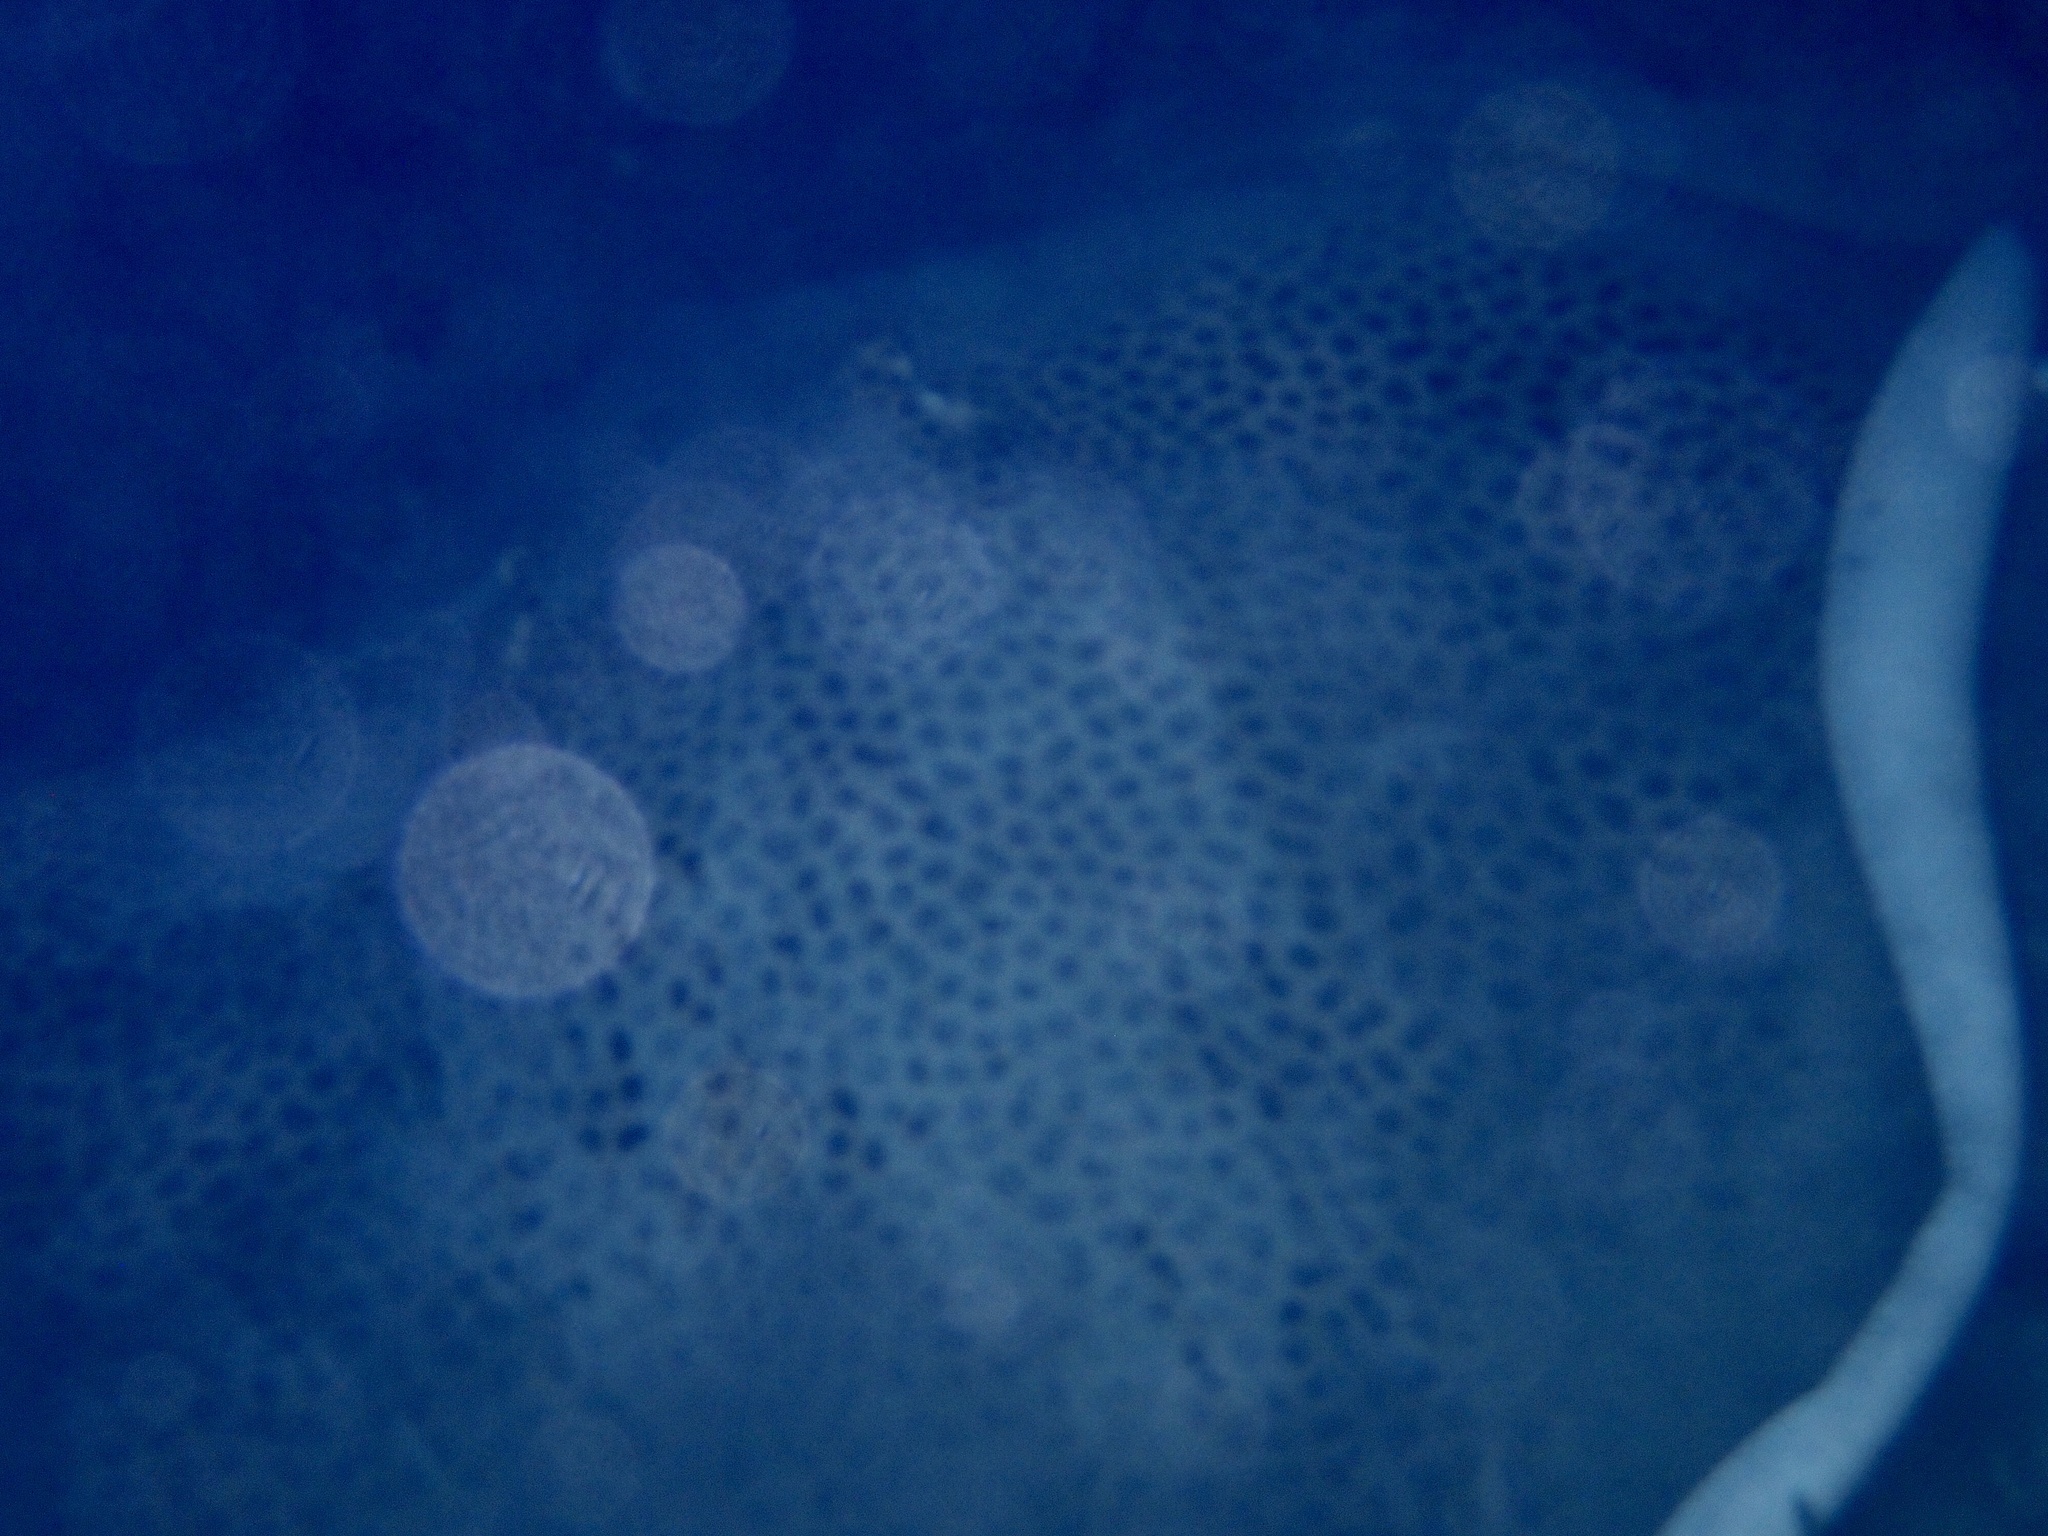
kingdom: Animalia
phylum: Chordata
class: Elasmobranchii
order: Myliobatiformes
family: Dasyatidae
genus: Himantura
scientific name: Himantura uarnak
